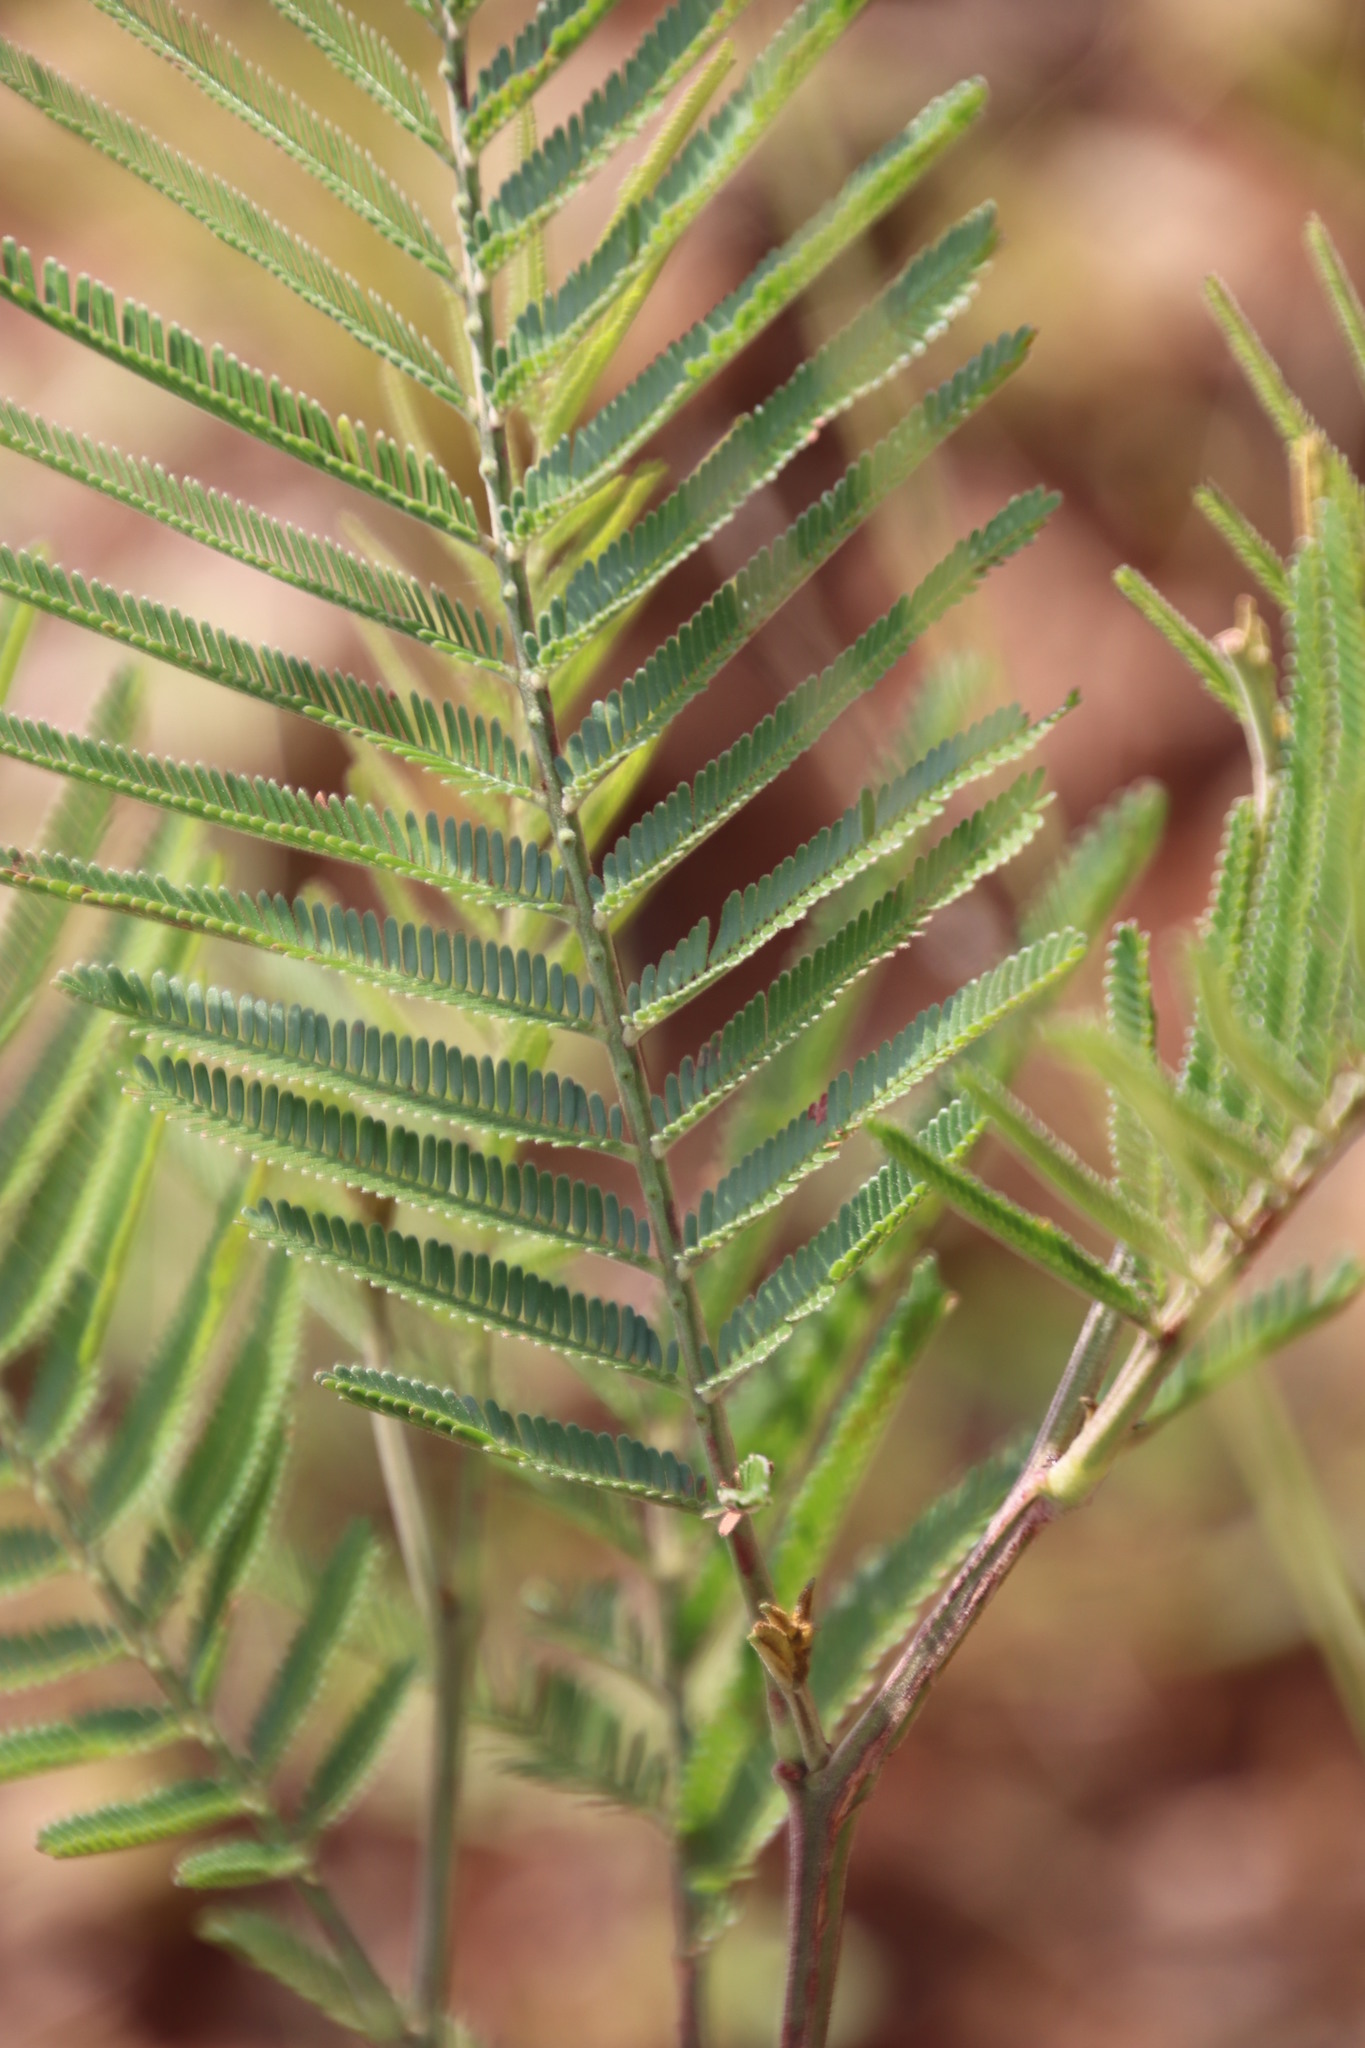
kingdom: Plantae
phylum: Tracheophyta
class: Magnoliopsida
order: Fabales
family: Fabaceae
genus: Acacia
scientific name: Acacia mearnsii
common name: Black wattle
